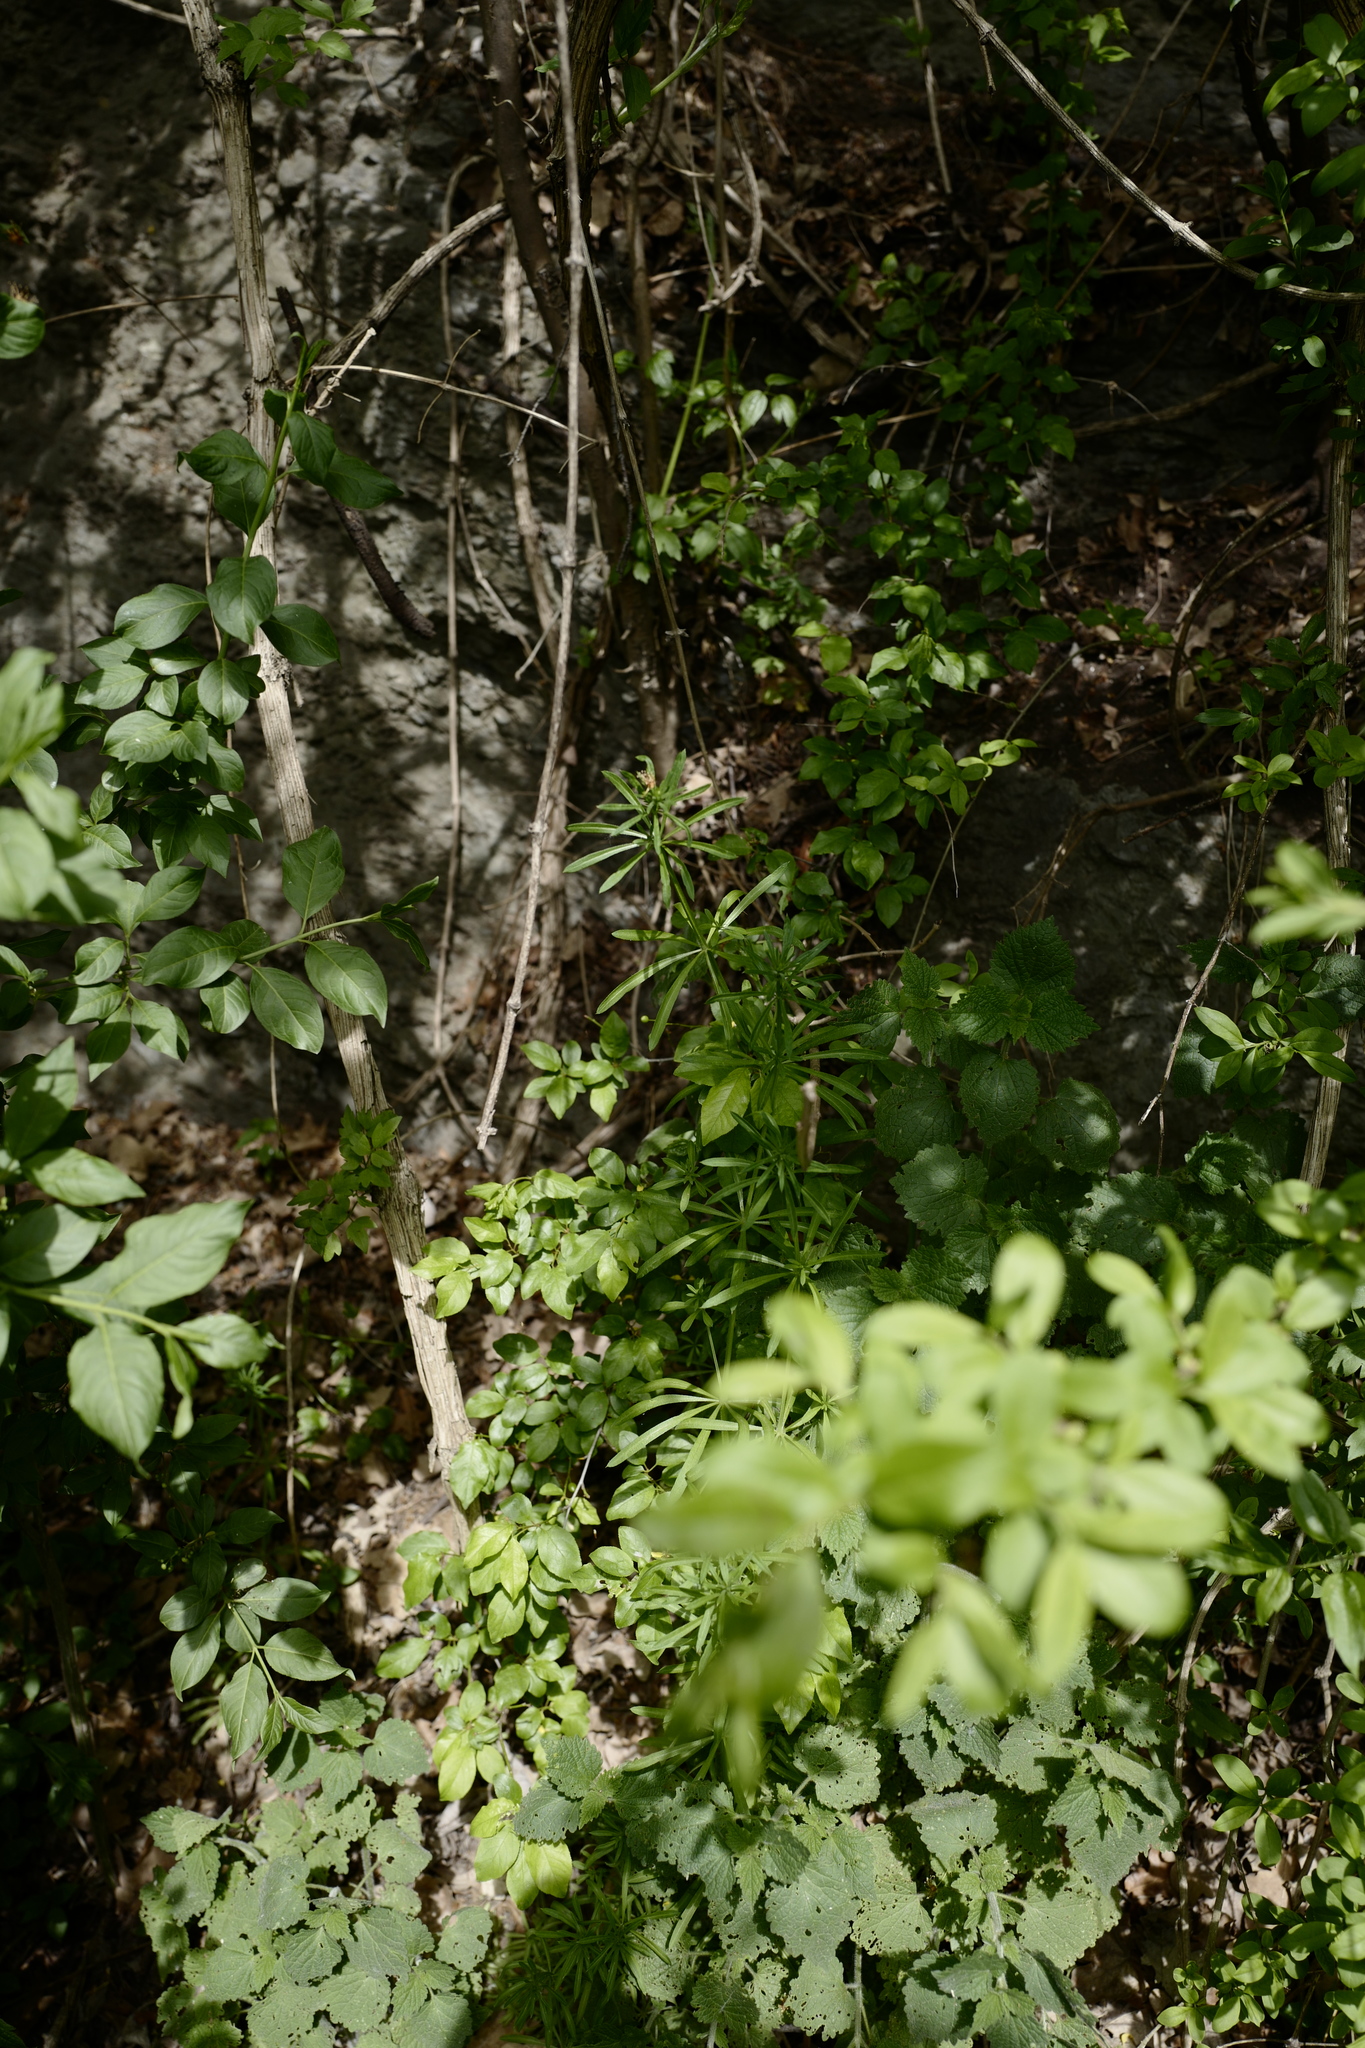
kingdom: Plantae
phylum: Tracheophyta
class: Magnoliopsida
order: Gentianales
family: Rubiaceae
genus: Galium
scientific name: Galium aparine
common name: Cleavers
